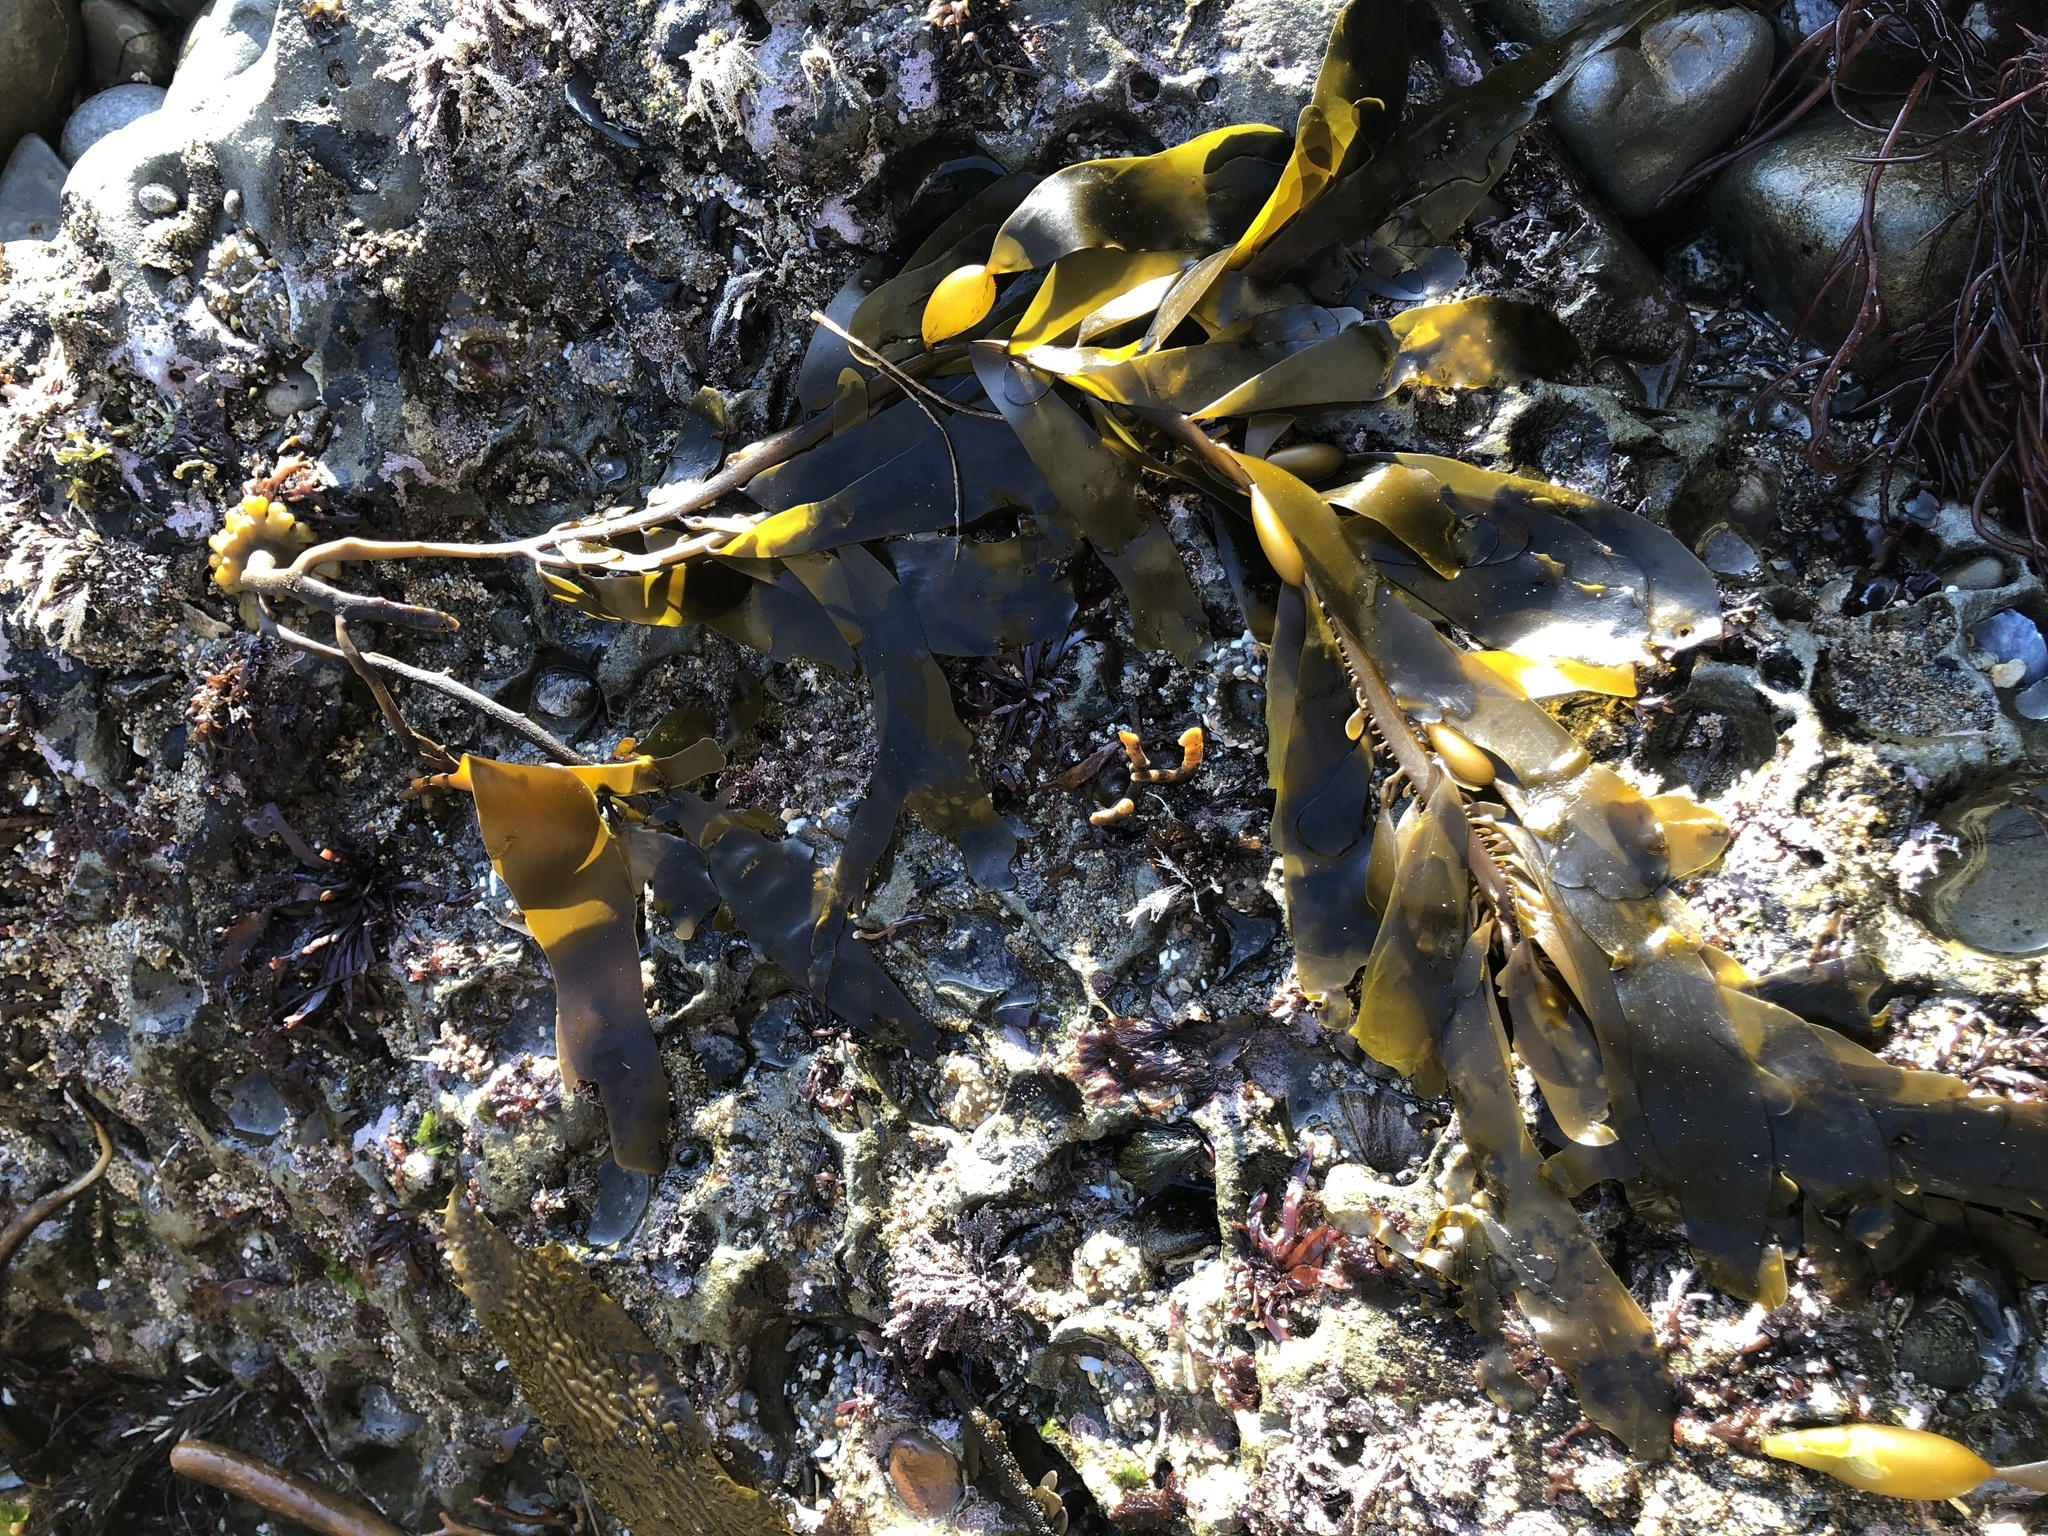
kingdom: Chromista
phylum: Ochrophyta
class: Phaeophyceae
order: Laminariales
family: Lessoniaceae
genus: Egregia
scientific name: Egregia menziesii
